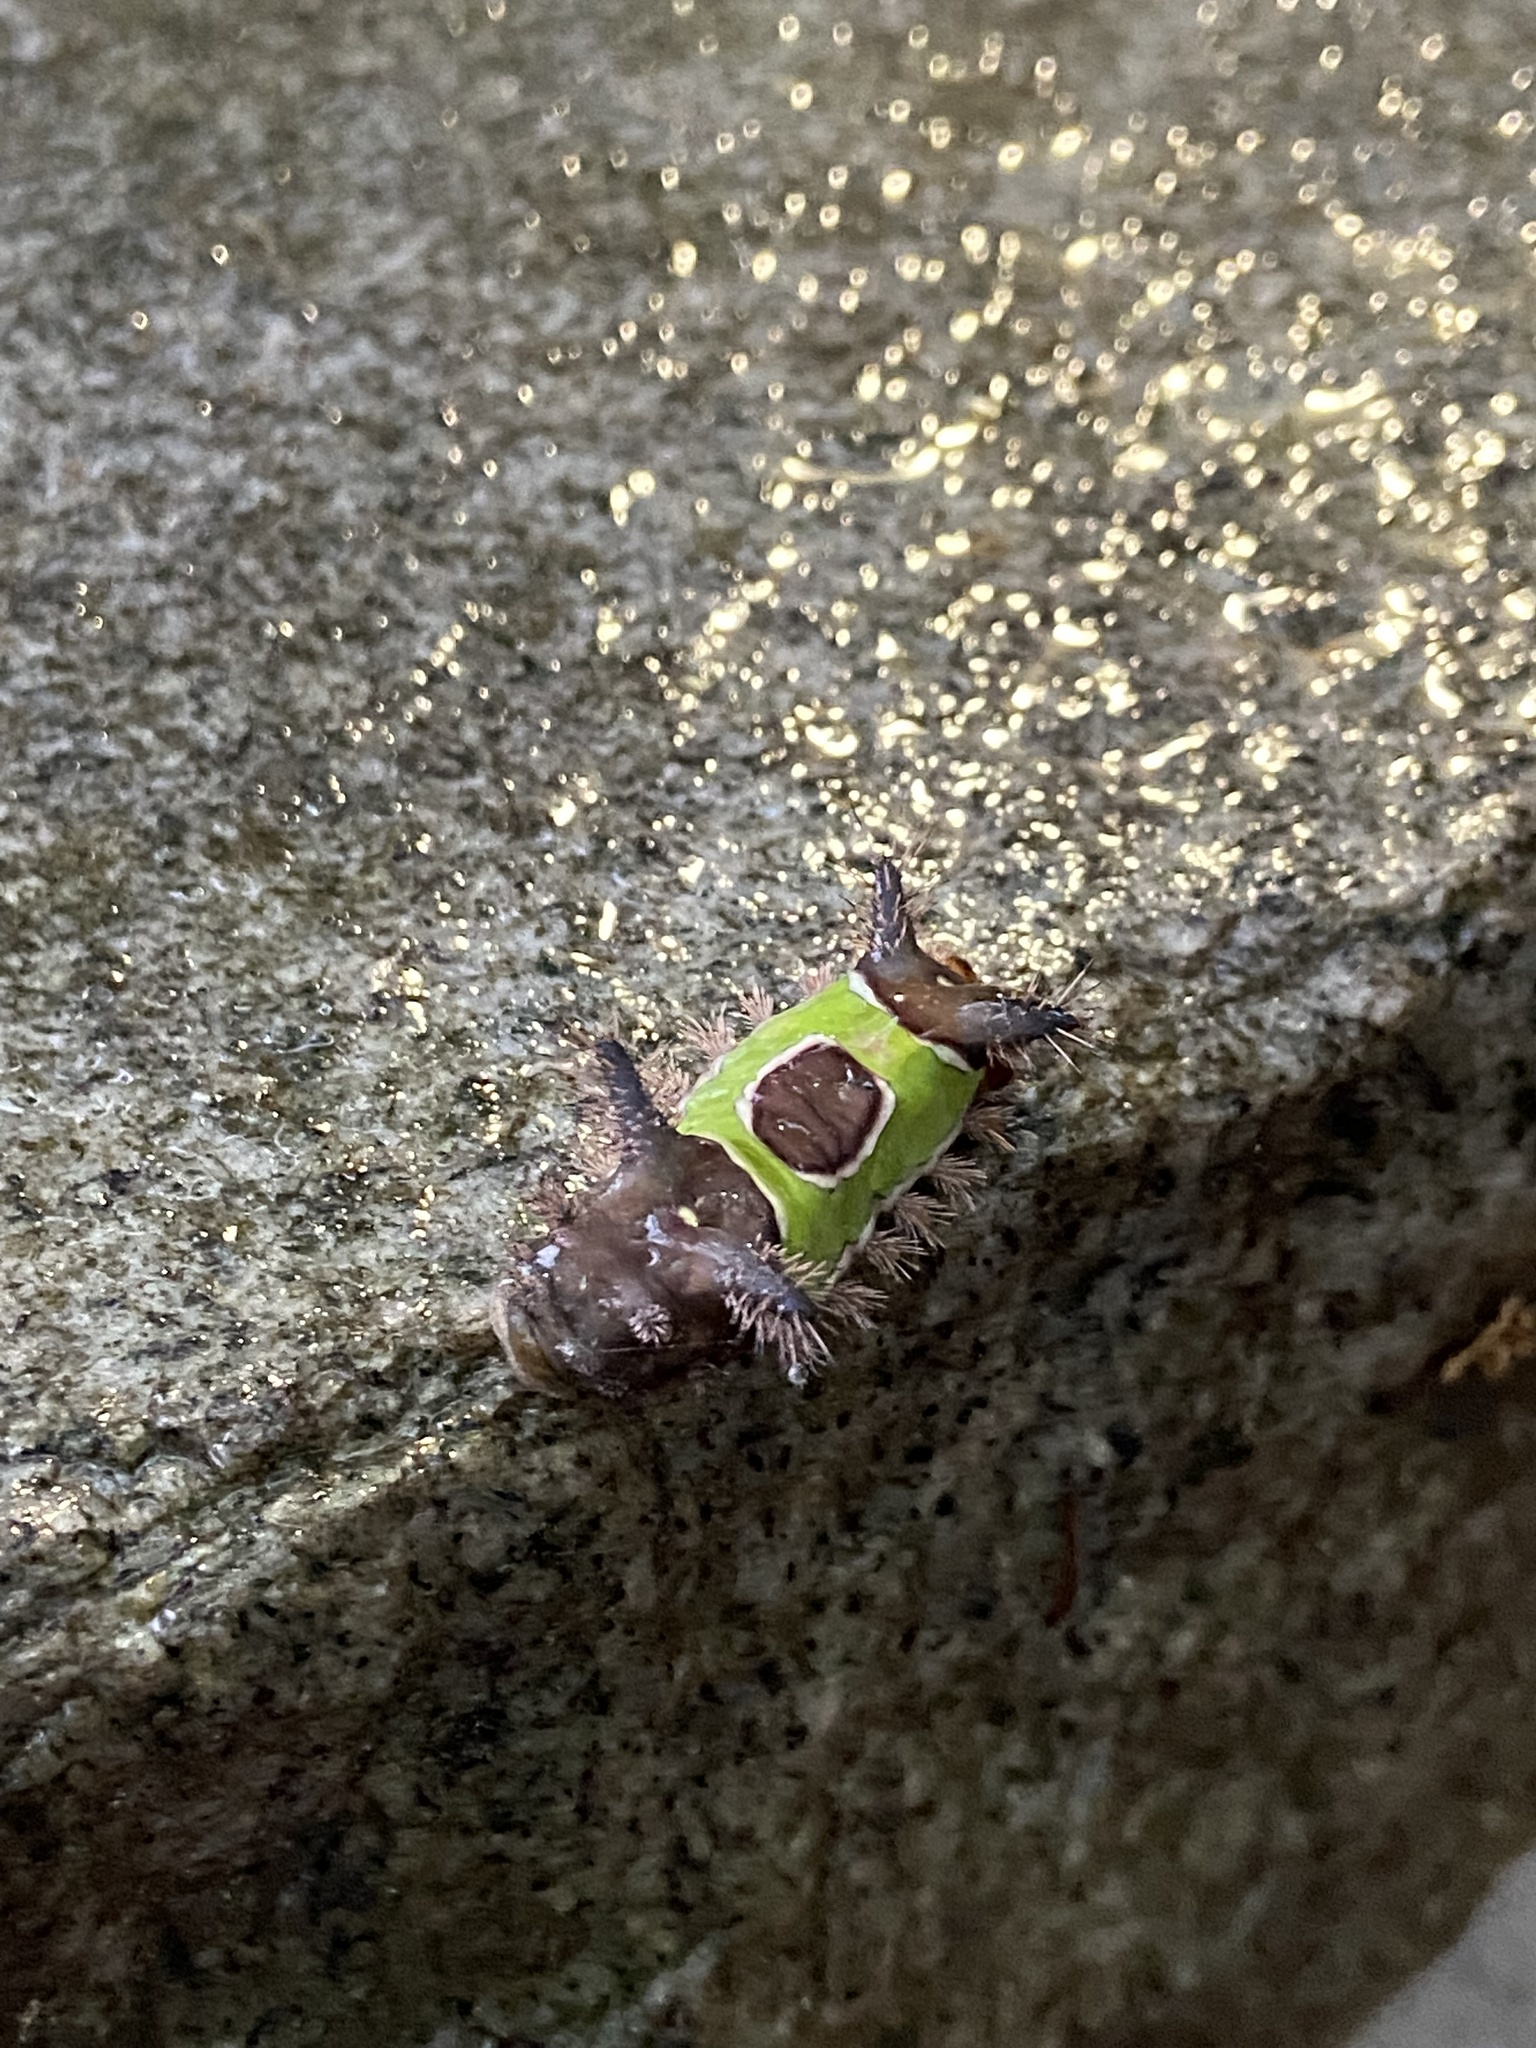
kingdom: Animalia
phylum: Arthropoda
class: Insecta
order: Lepidoptera
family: Limacodidae
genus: Acharia
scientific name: Acharia stimulea
